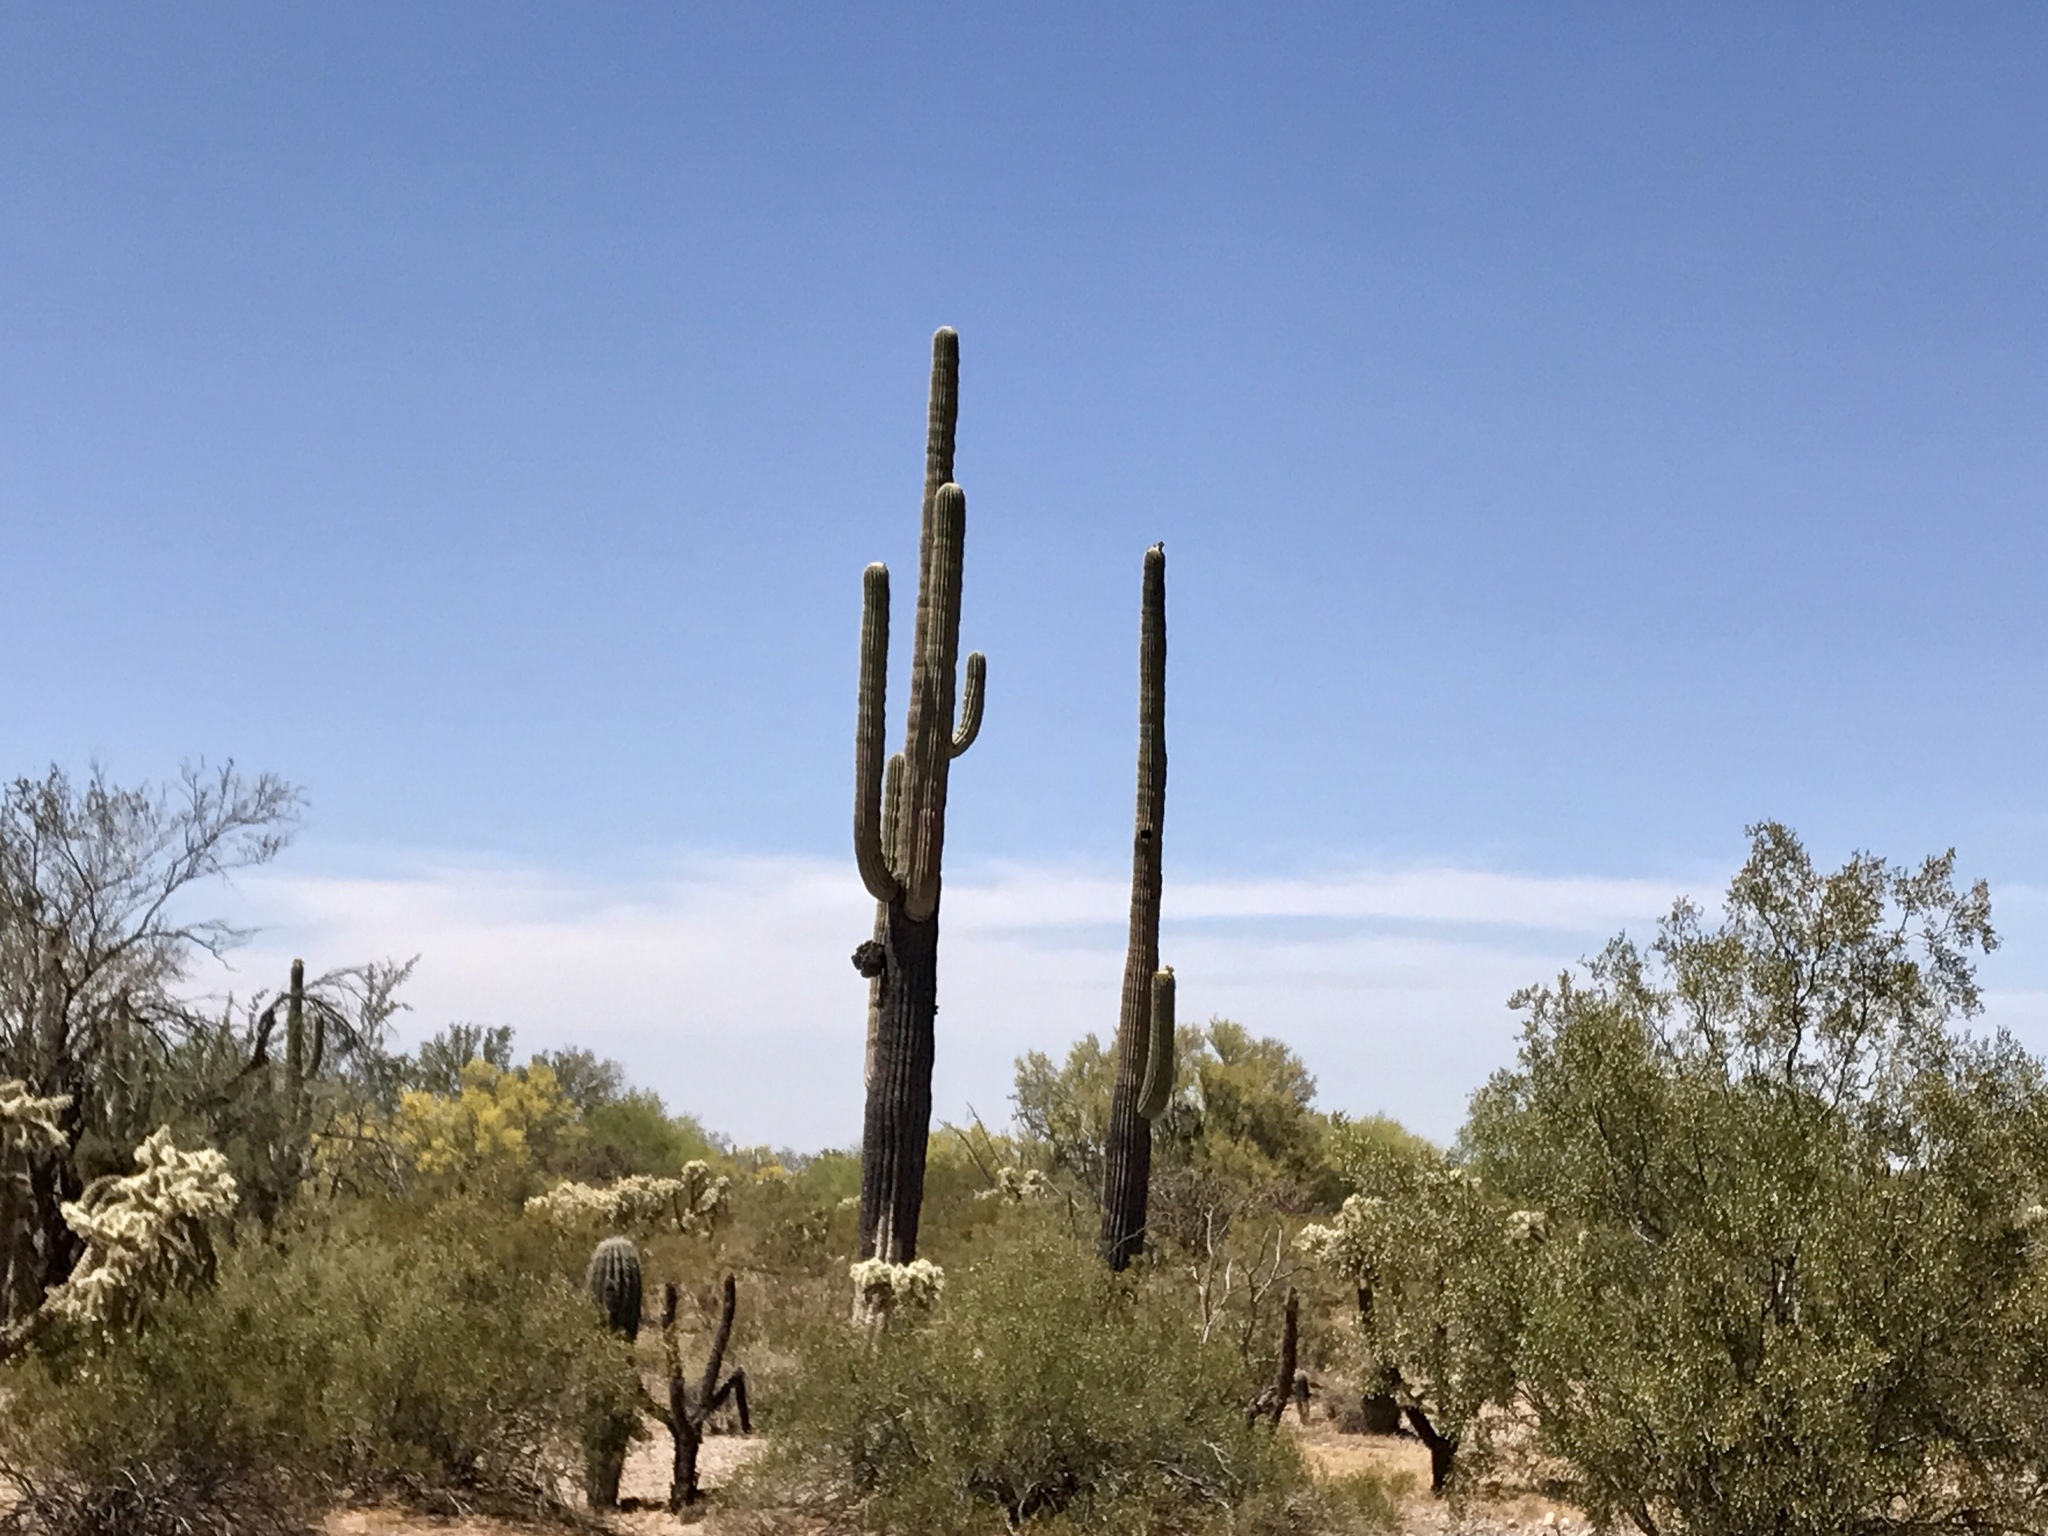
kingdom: Plantae
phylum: Tracheophyta
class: Magnoliopsida
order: Caryophyllales
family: Cactaceae
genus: Carnegiea
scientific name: Carnegiea gigantea
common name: Saguaro
